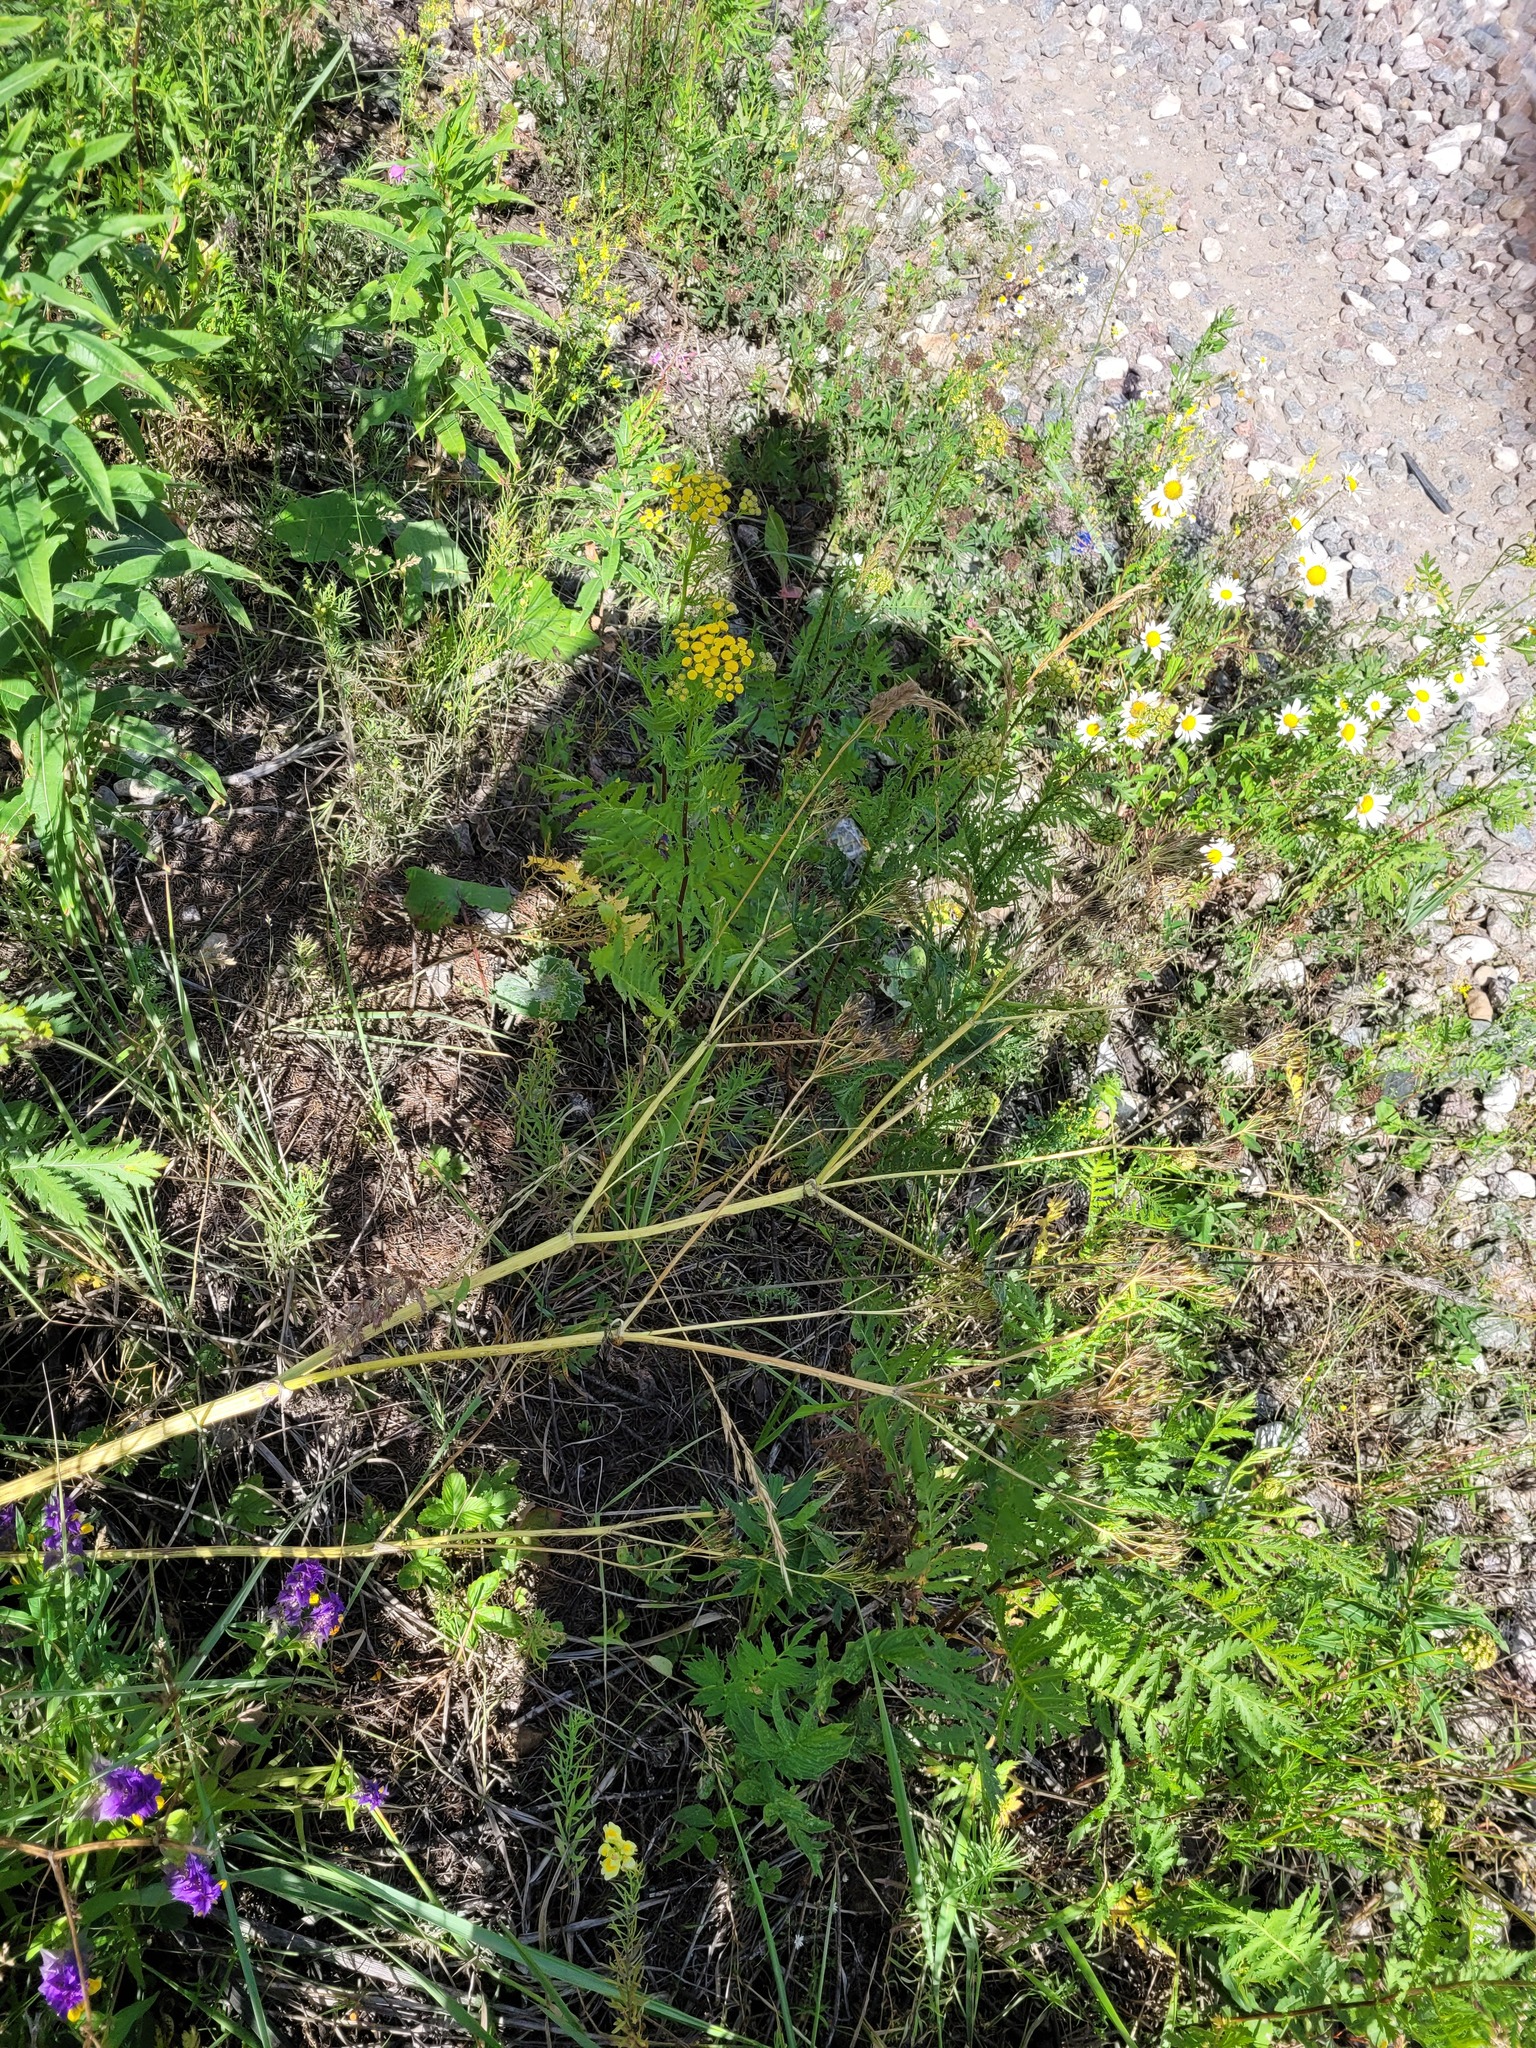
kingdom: Plantae
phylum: Tracheophyta
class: Magnoliopsida
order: Apiales
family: Apiaceae
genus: Anthriscus
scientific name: Anthriscus sylvestris
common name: Cow parsley
